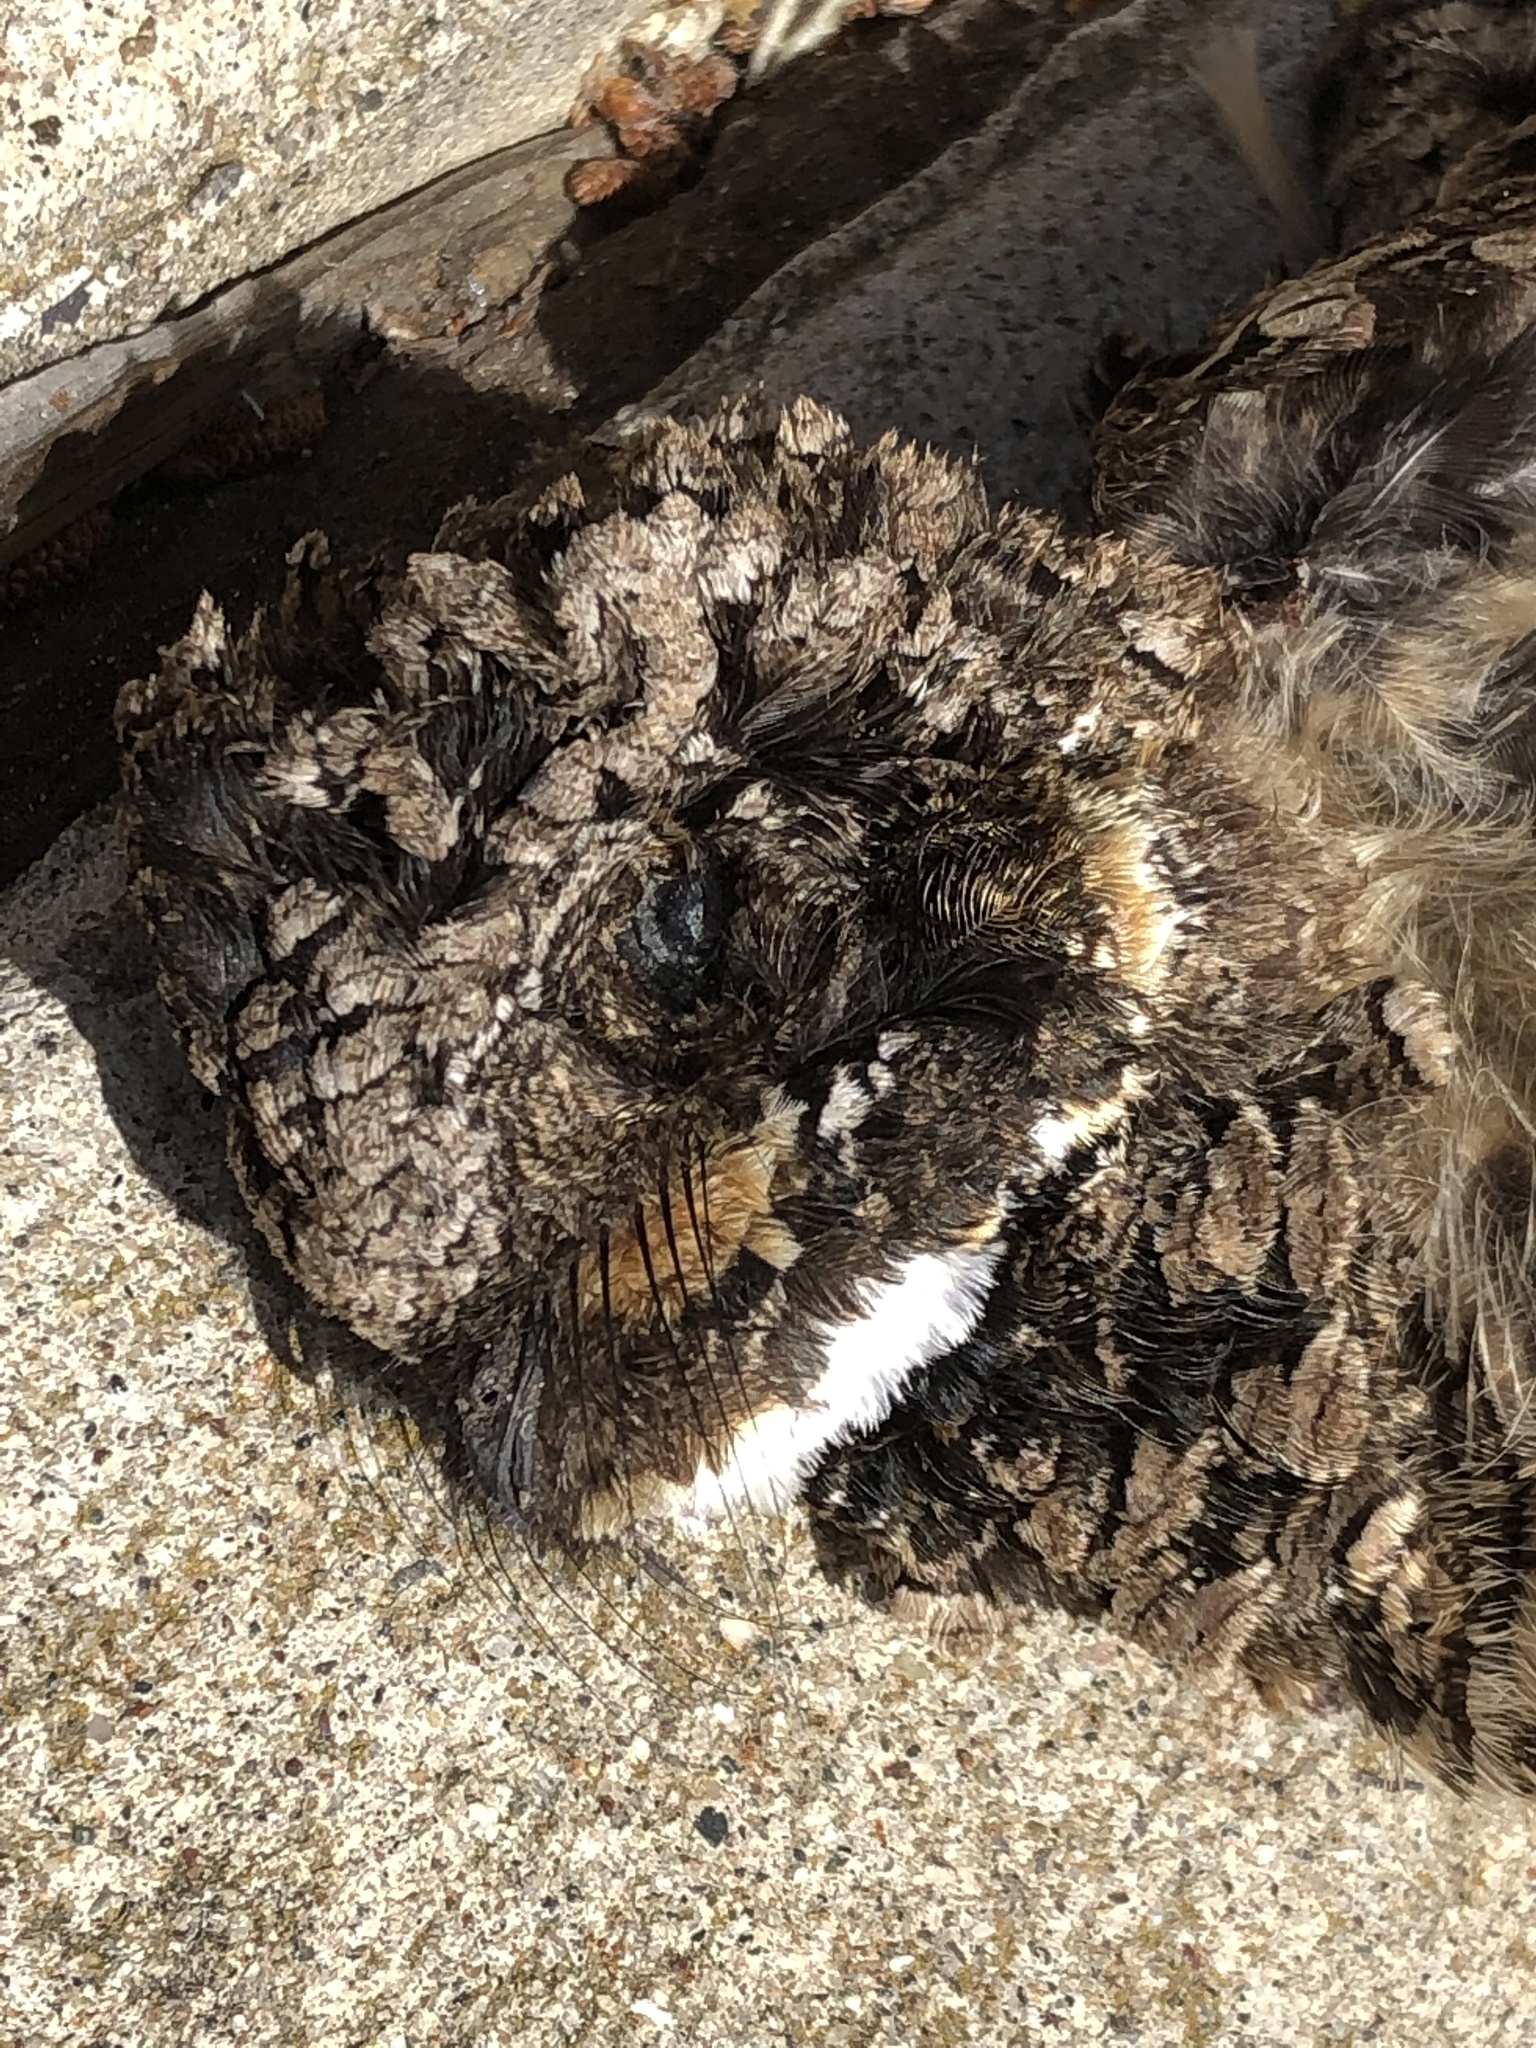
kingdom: Animalia
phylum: Chordata
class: Aves
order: Caprimulgiformes
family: Caprimulgidae
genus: Phalaenoptilus
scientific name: Phalaenoptilus nuttallii
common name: Common poorwill
